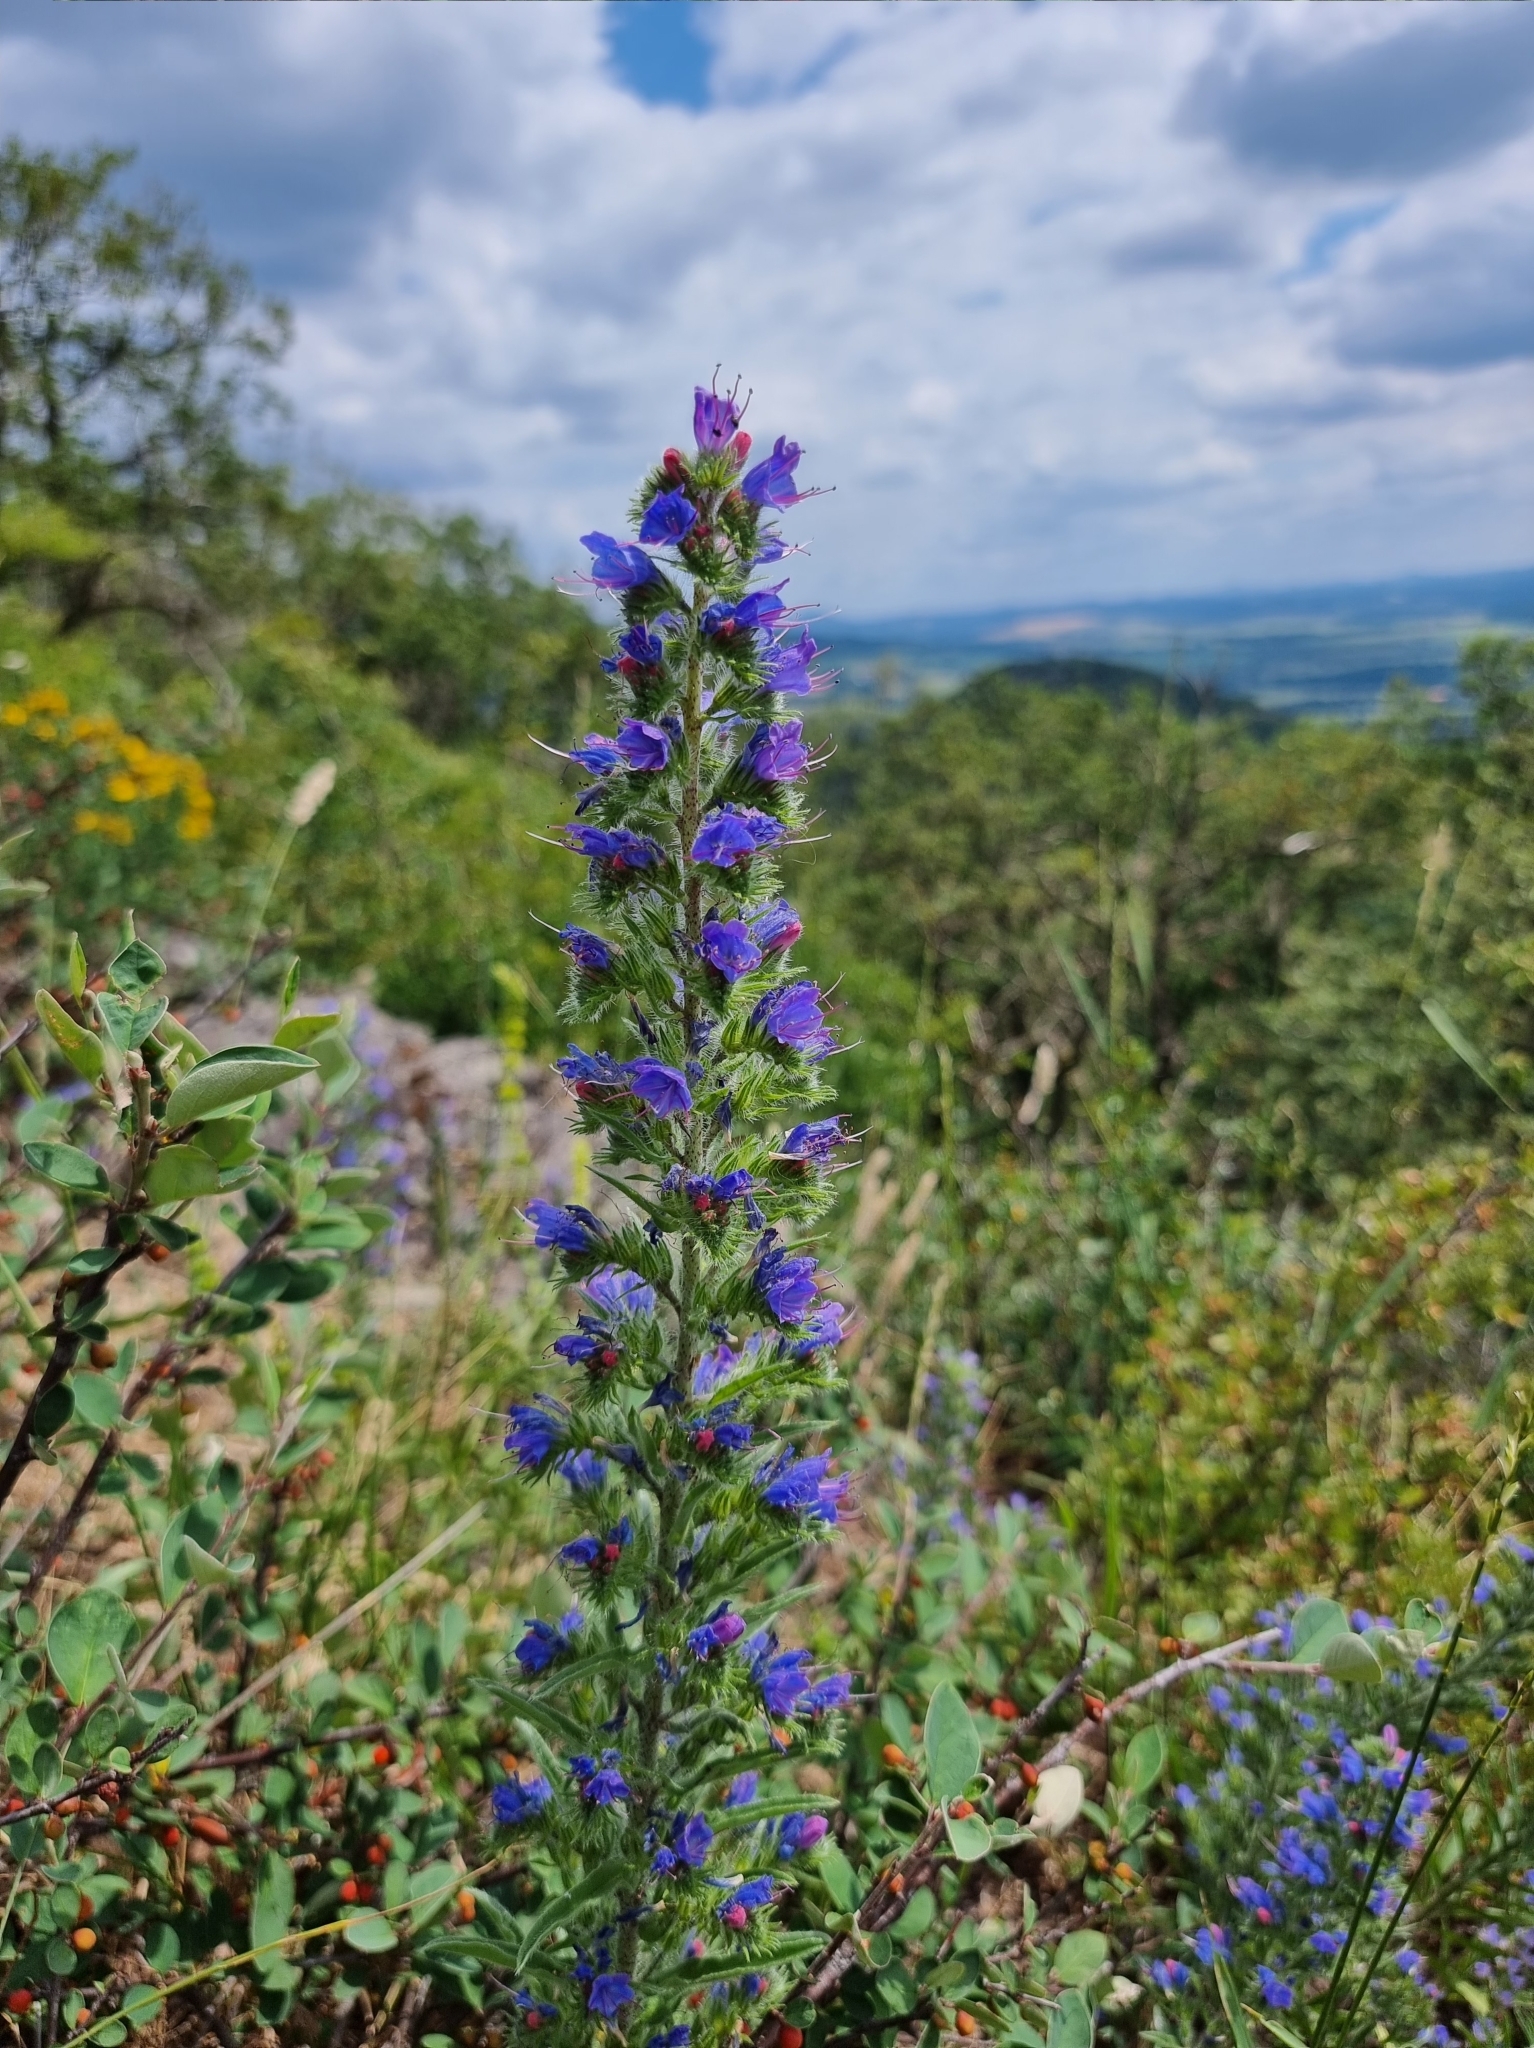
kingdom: Plantae
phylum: Tracheophyta
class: Magnoliopsida
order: Boraginales
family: Boraginaceae
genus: Echium
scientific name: Echium vulgare
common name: Common viper's bugloss
